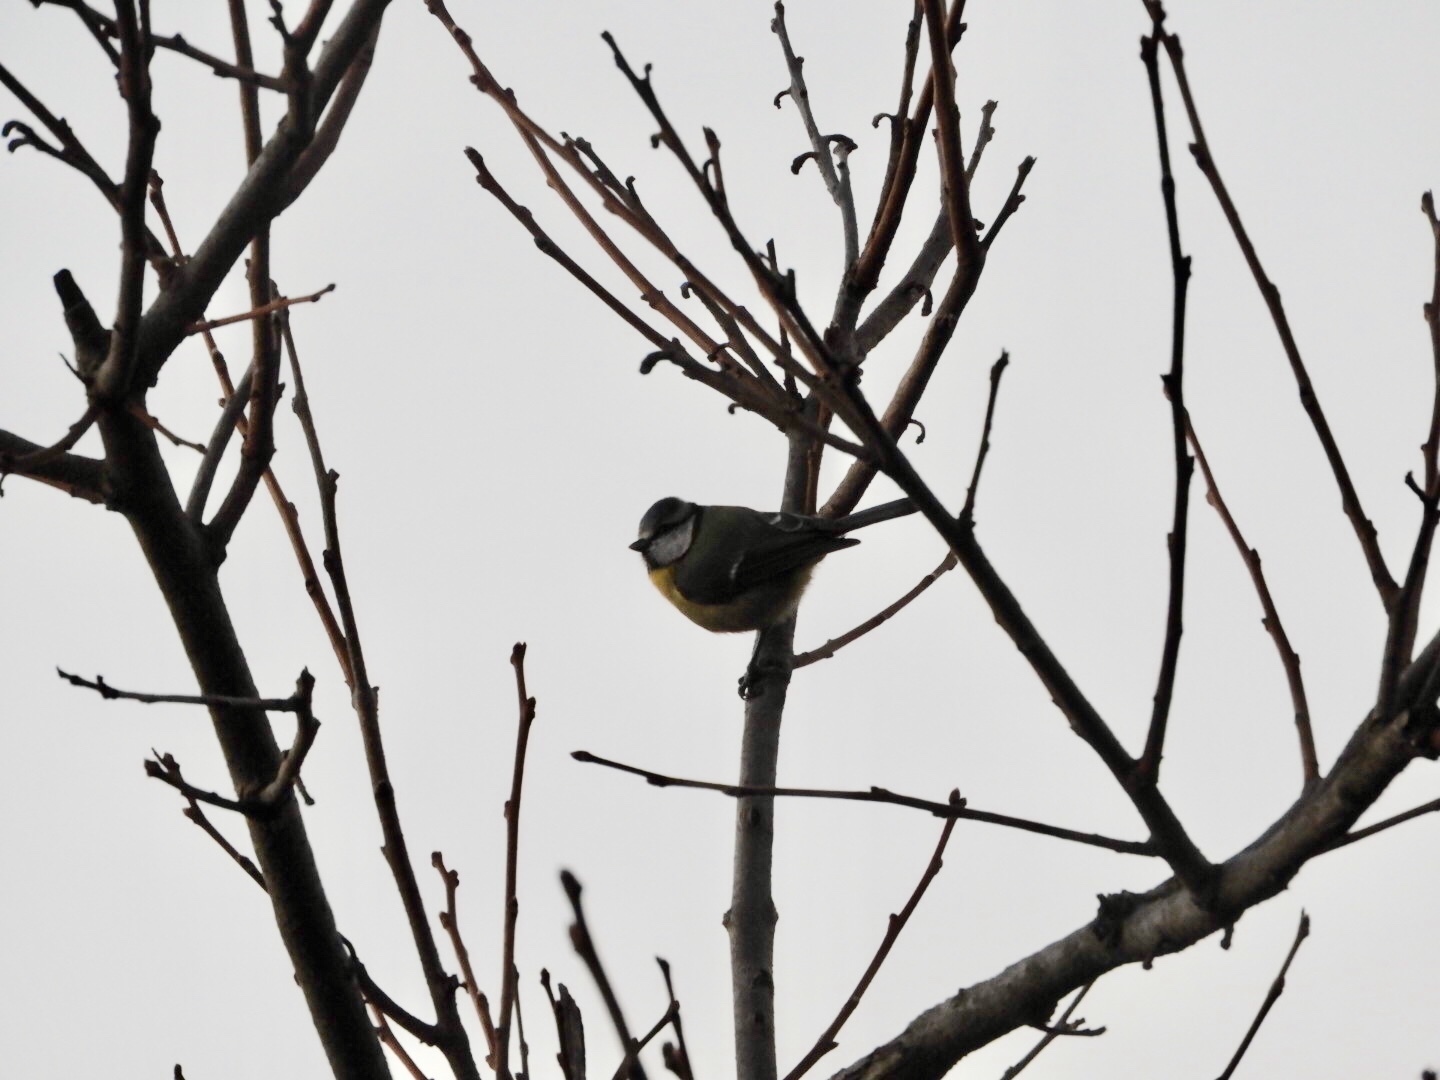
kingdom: Animalia
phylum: Chordata
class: Aves
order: Passeriformes
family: Paridae
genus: Cyanistes
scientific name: Cyanistes caeruleus
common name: Eurasian blue tit
